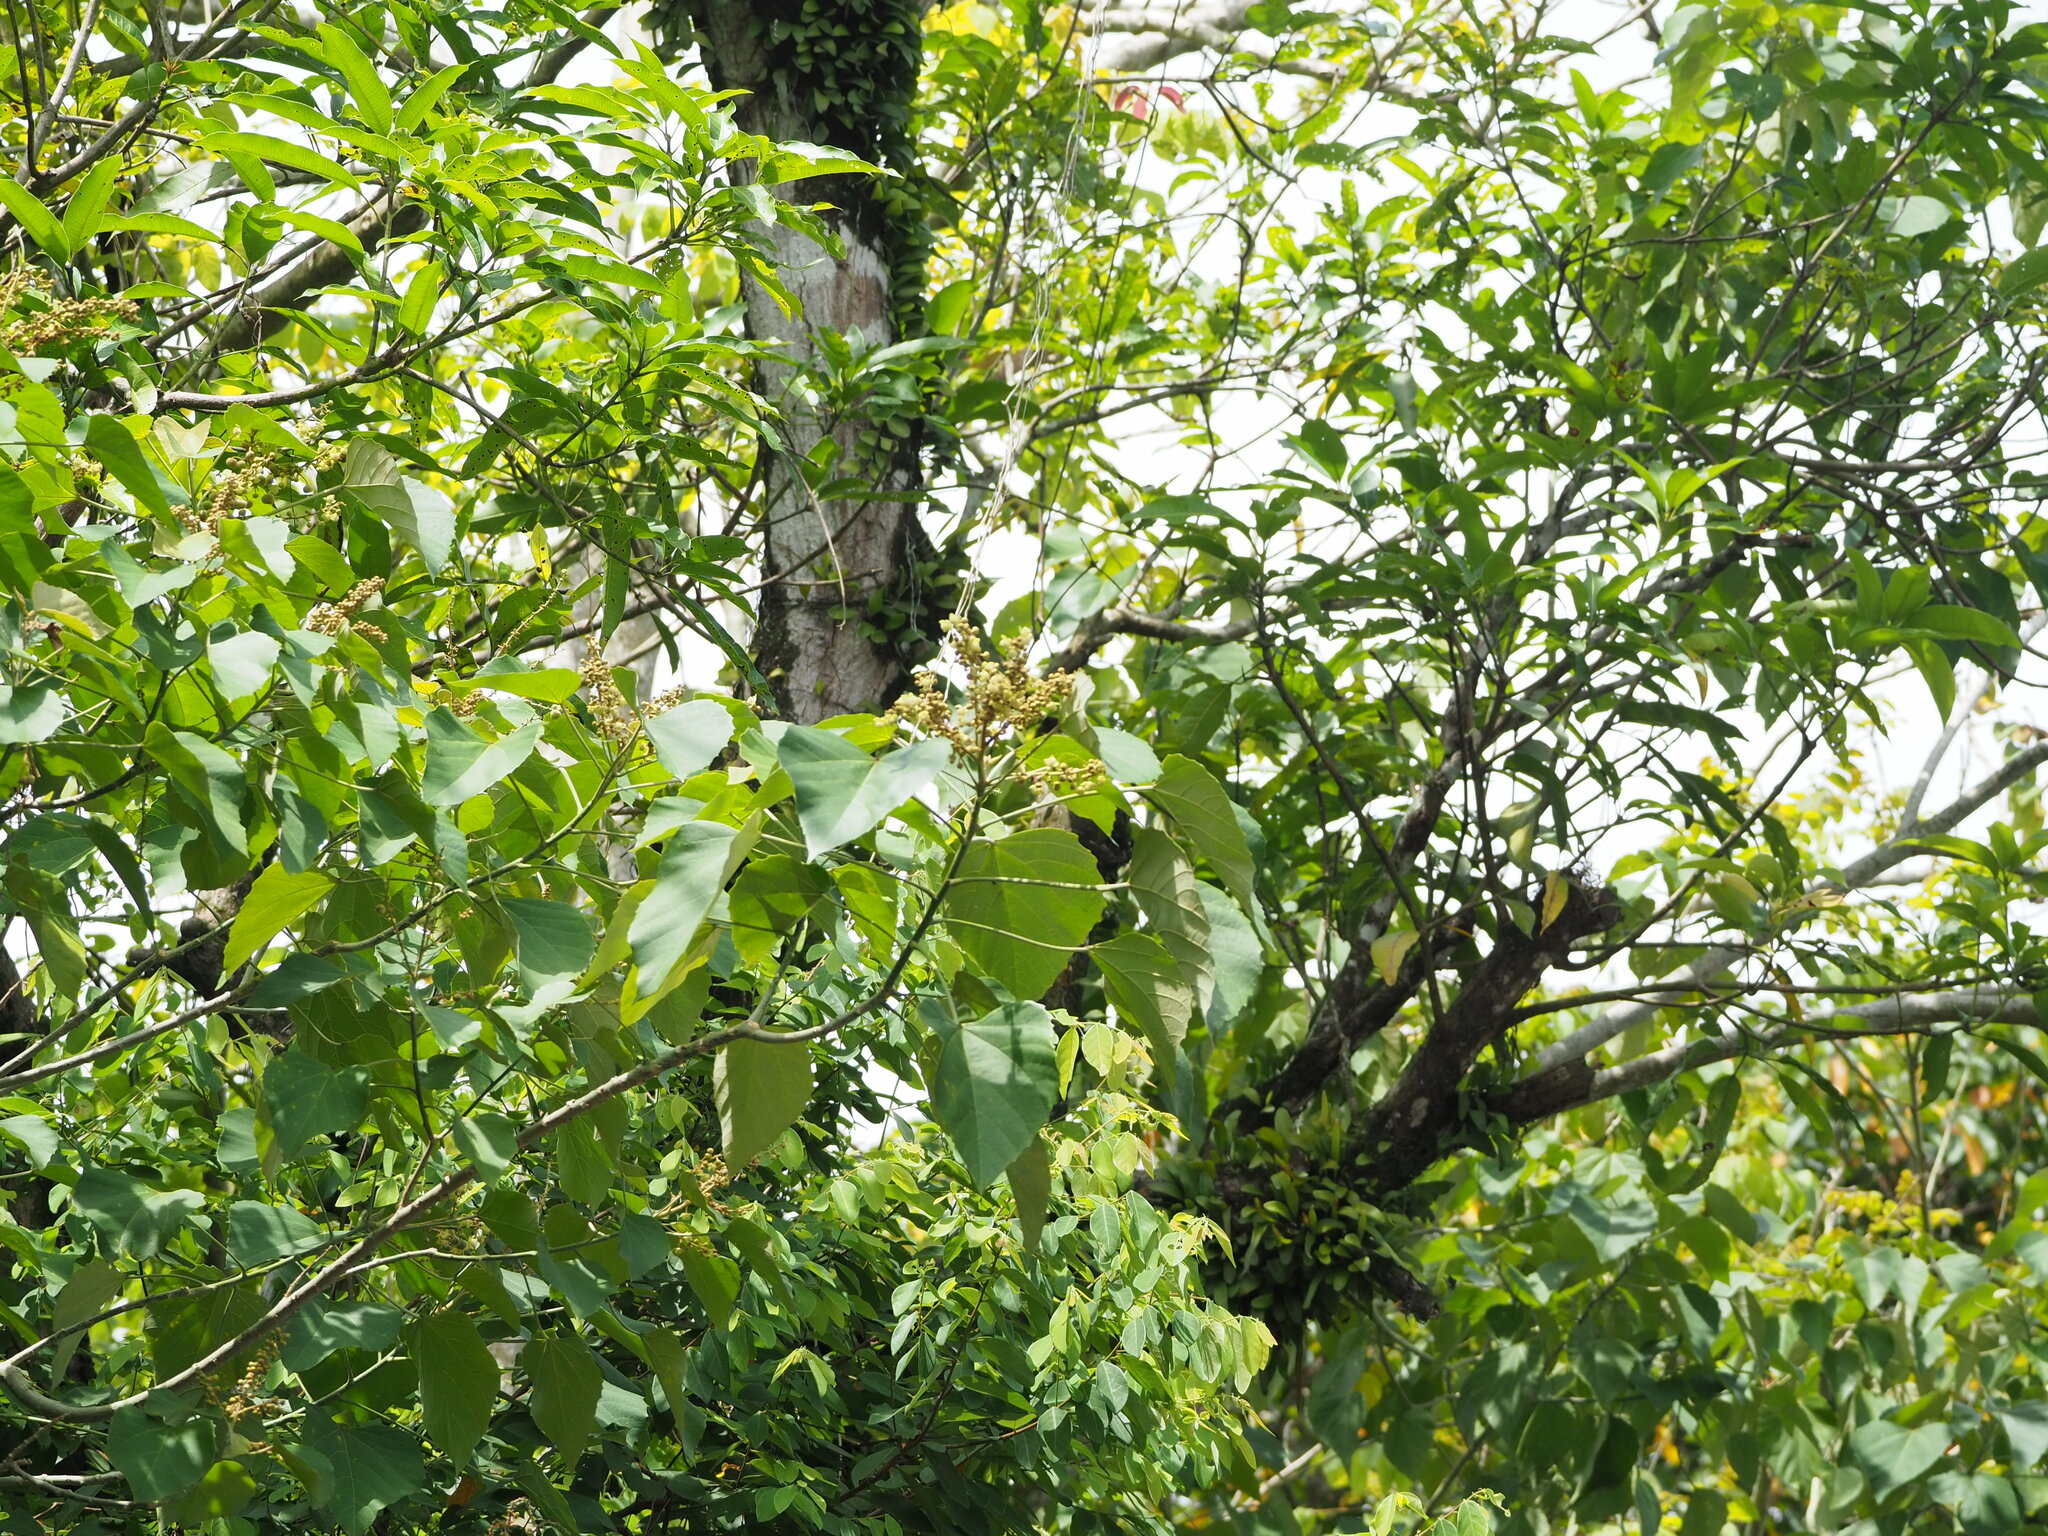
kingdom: Plantae
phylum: Tracheophyta
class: Magnoliopsida
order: Malpighiales
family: Euphorbiaceae
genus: Melanolepis
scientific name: Melanolepis multiglandulosa
